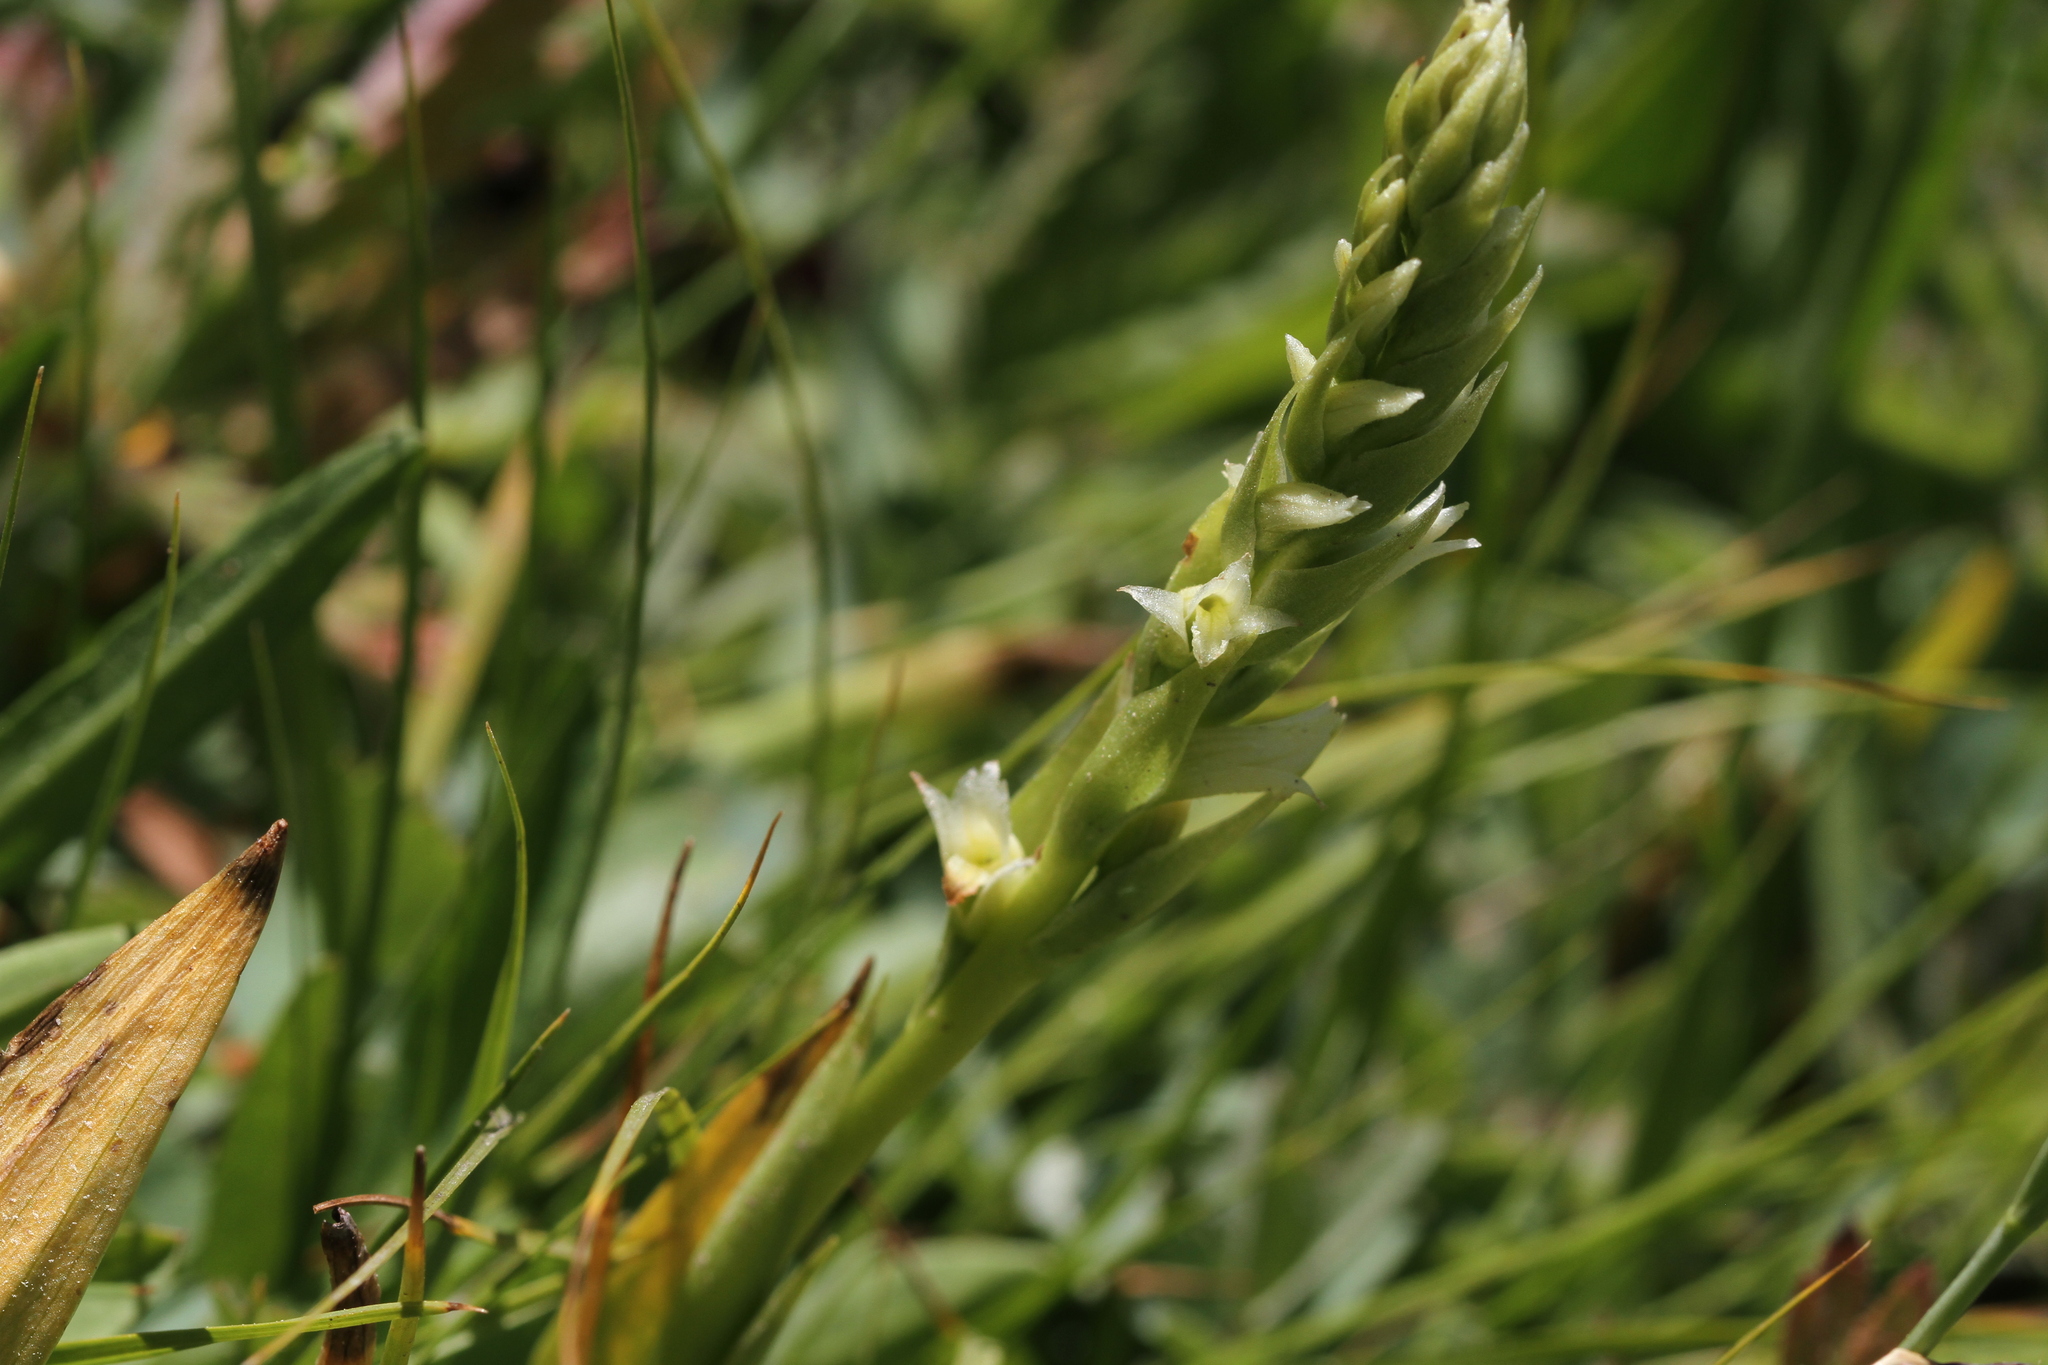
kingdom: Plantae
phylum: Tracheophyta
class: Liliopsida
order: Asparagales
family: Orchidaceae
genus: Spiranthes
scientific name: Spiranthes stellata
